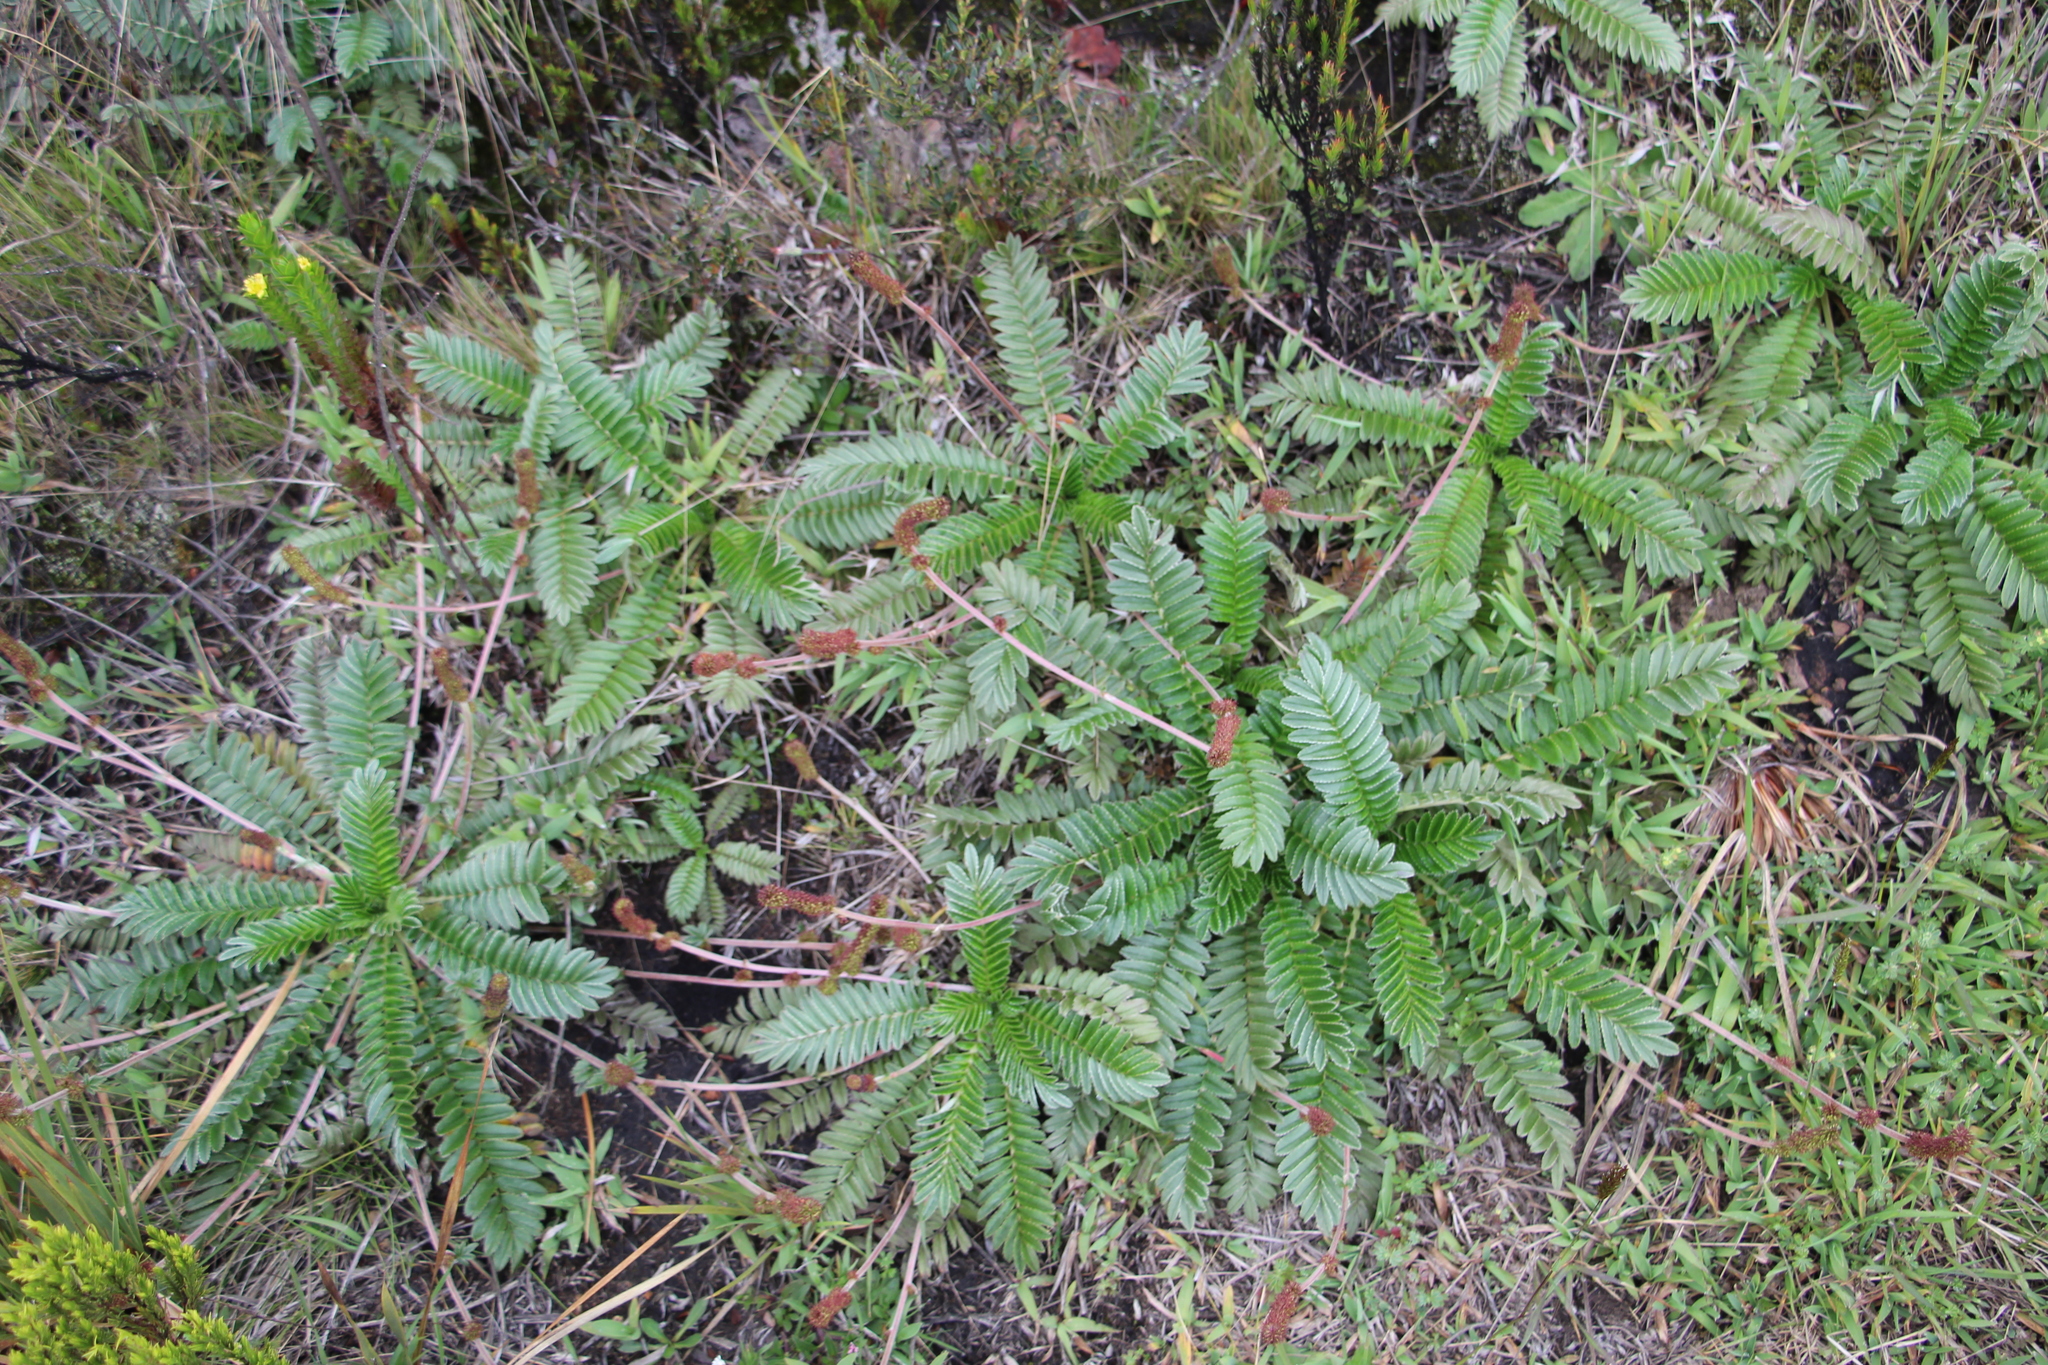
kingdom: Plantae
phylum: Tracheophyta
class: Magnoliopsida
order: Rosales
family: Rosaceae
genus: Acaena
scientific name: Acaena cylindristachya
